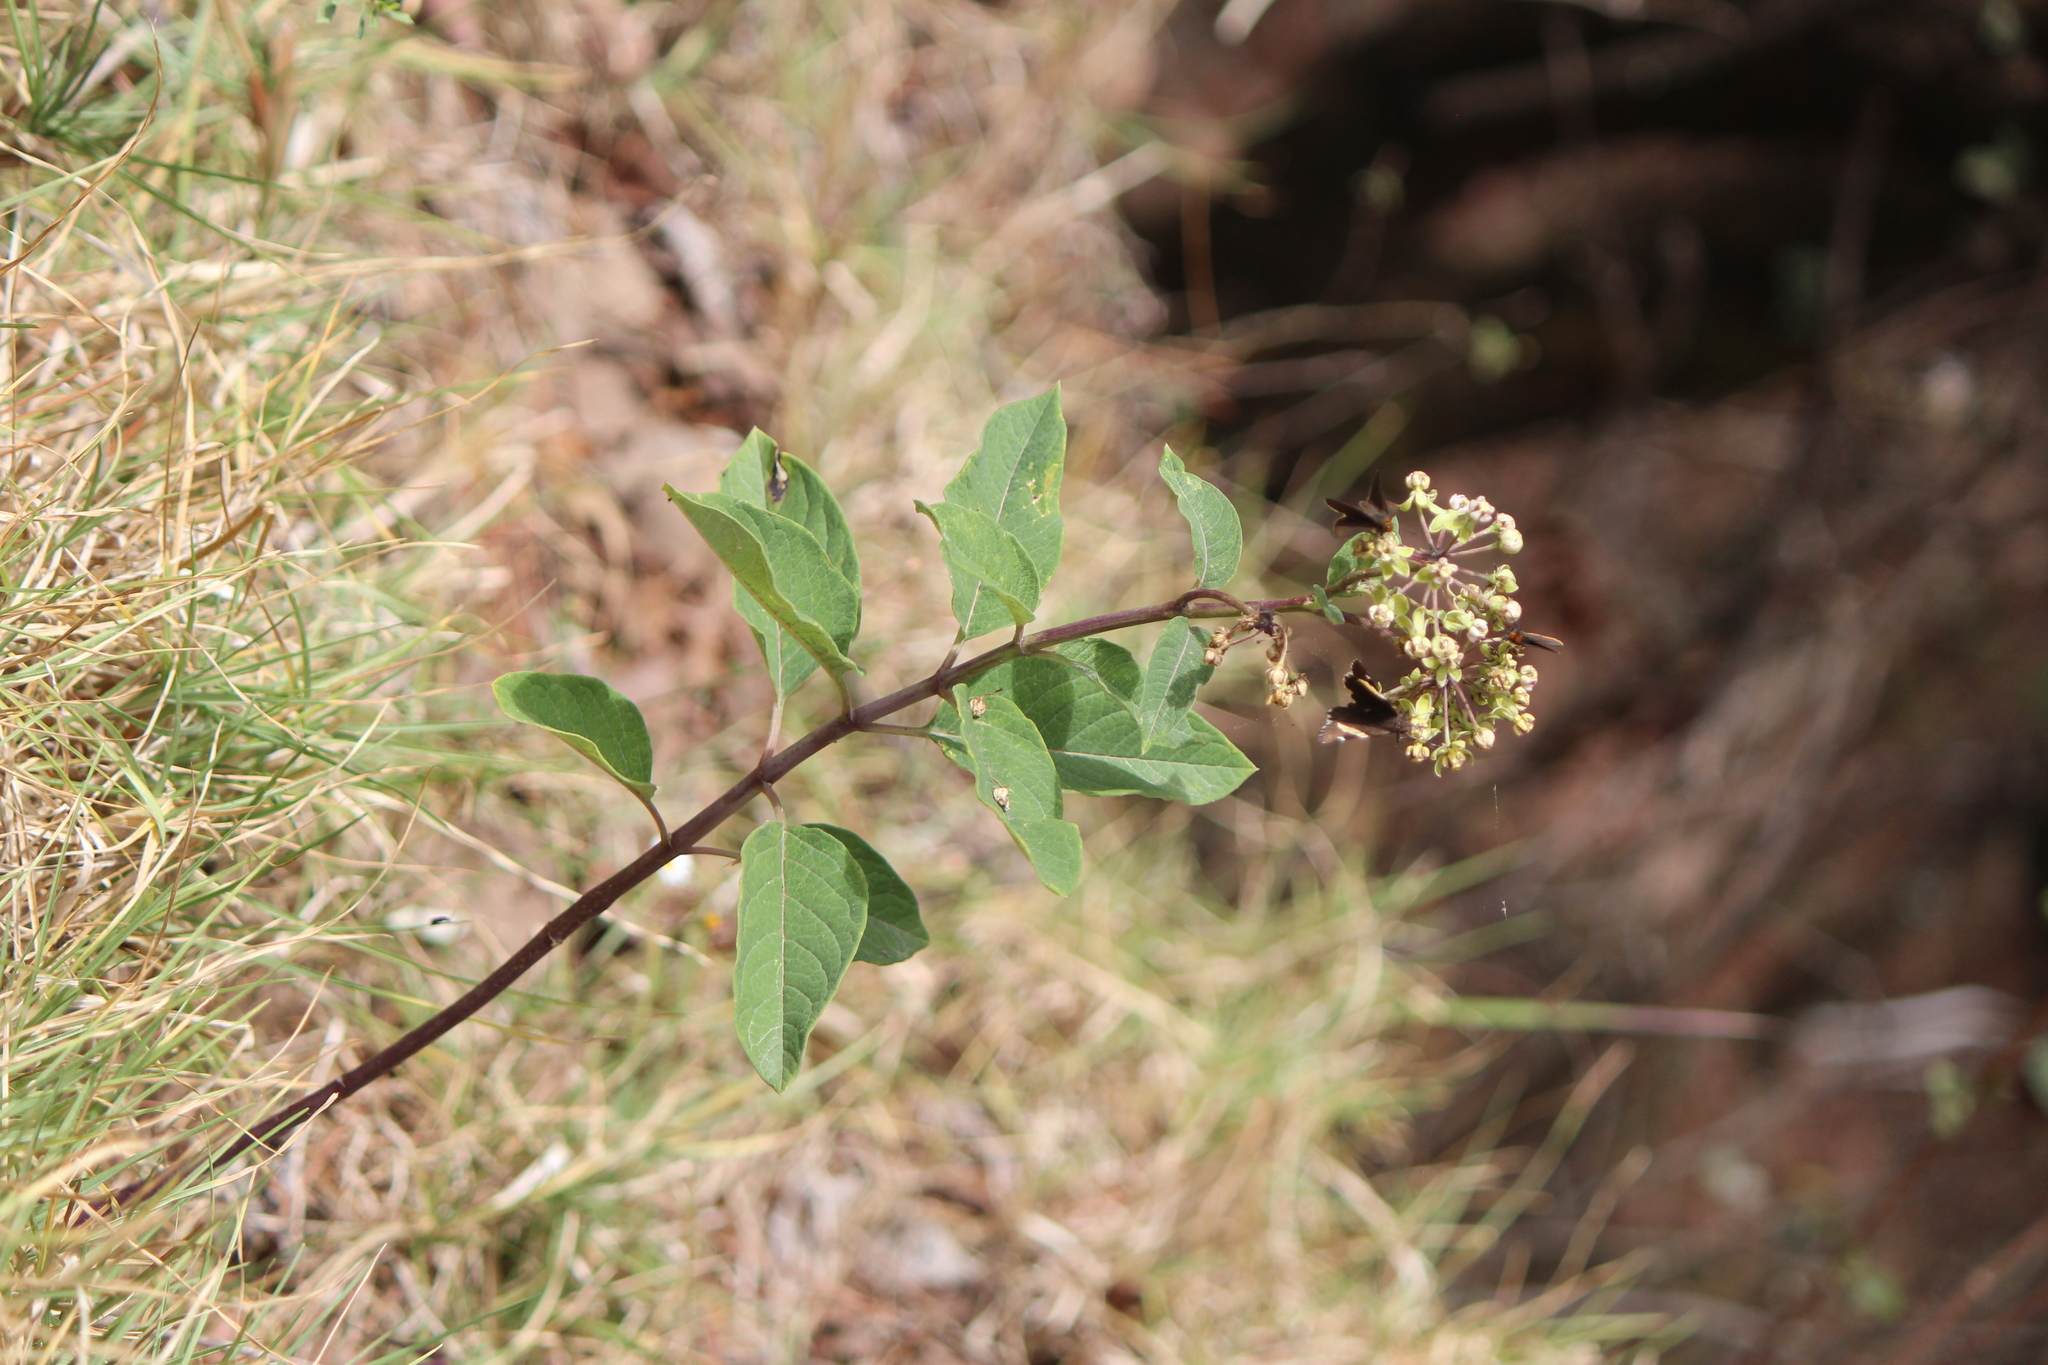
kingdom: Plantae
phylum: Tracheophyta
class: Magnoliopsida
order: Gentianales
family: Apocynaceae
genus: Asclepias
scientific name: Asclepias similis
